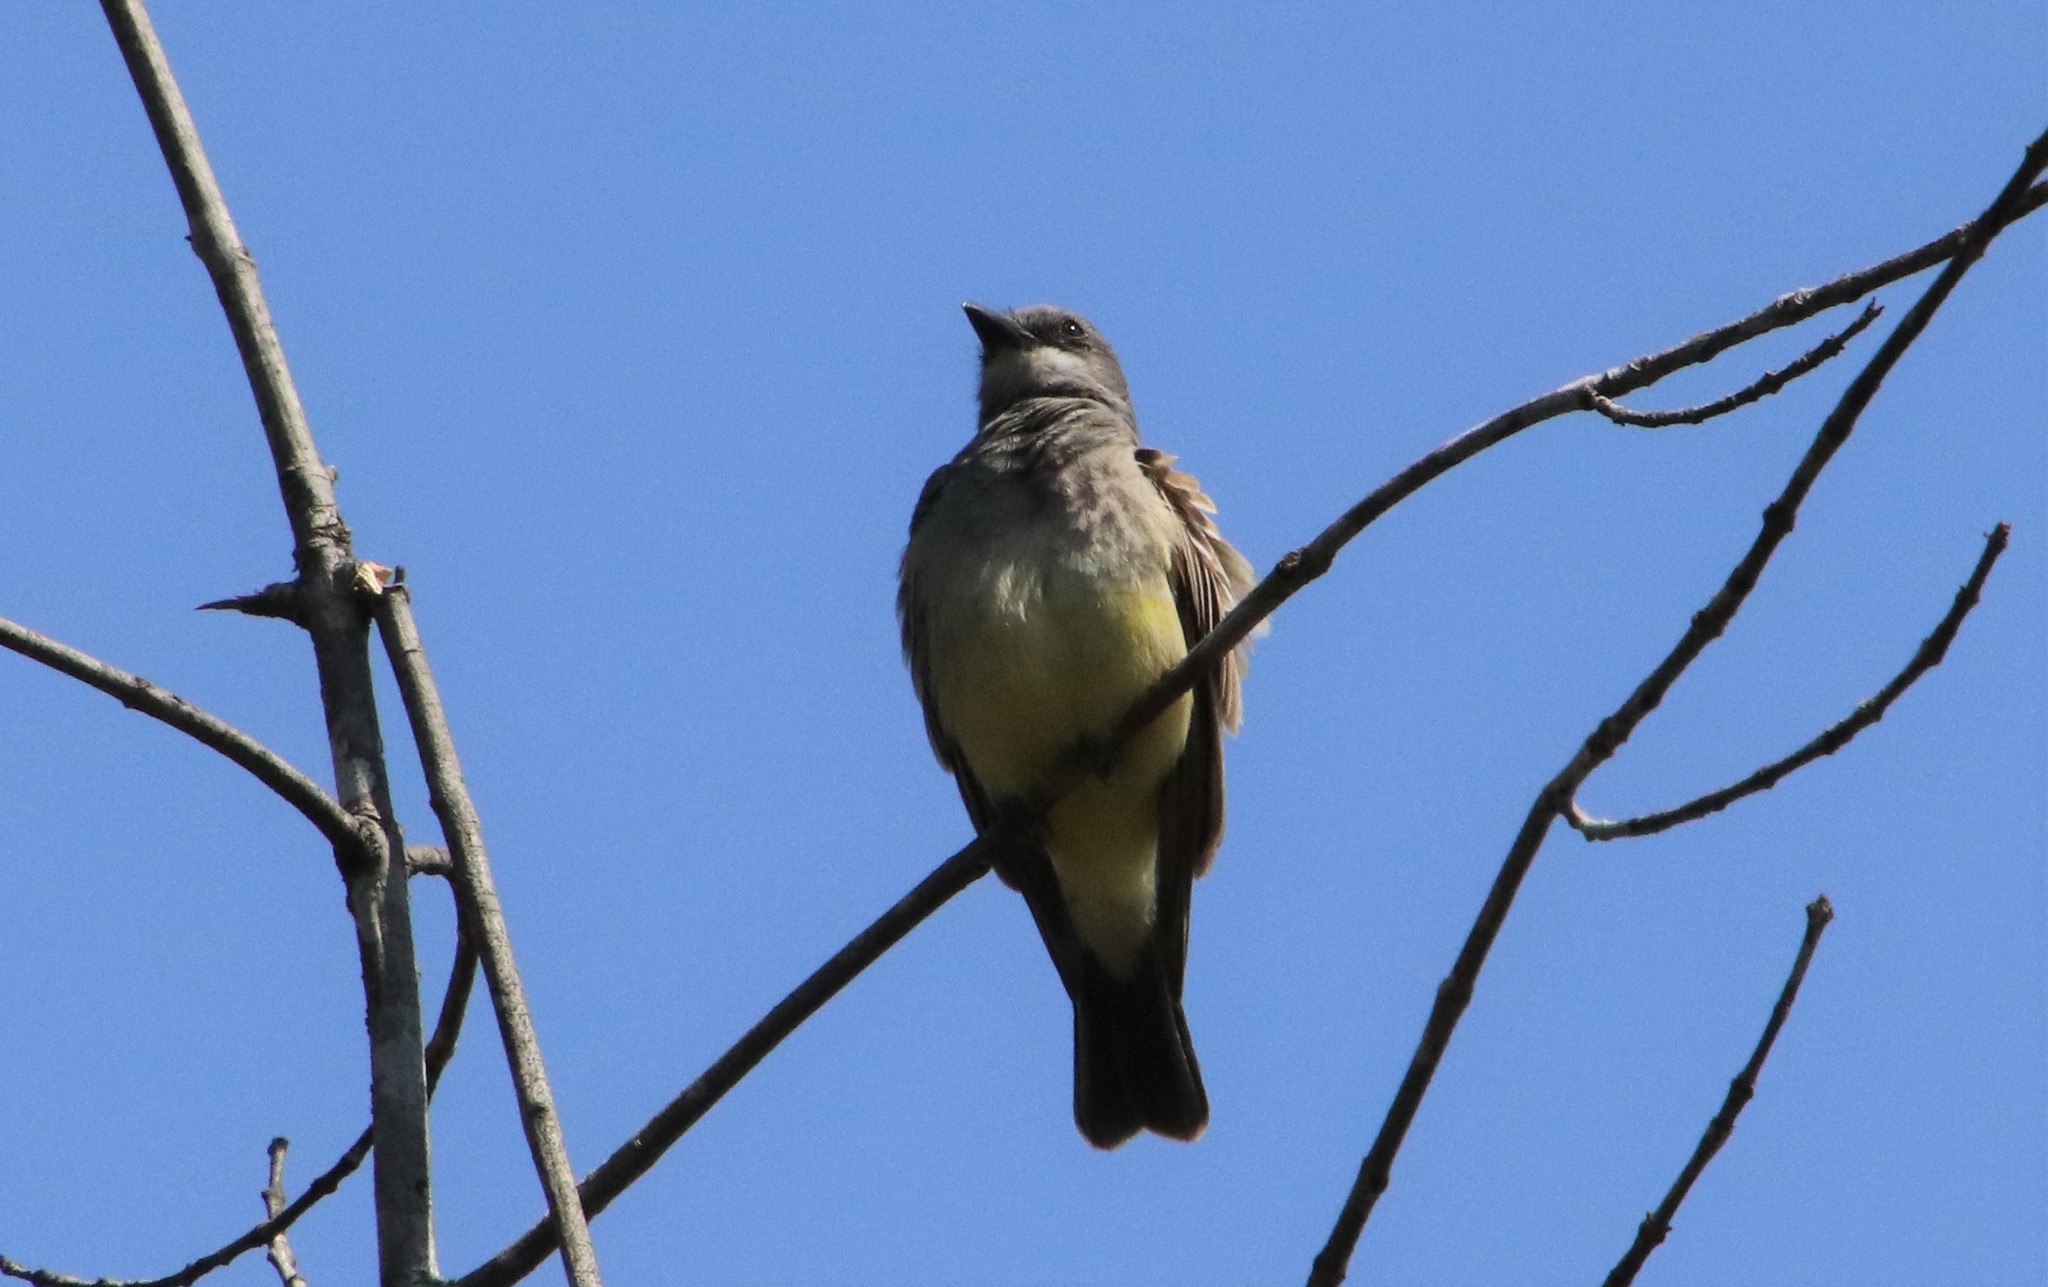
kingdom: Animalia
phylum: Chordata
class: Aves
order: Passeriformes
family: Tyrannidae
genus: Tyrannus
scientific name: Tyrannus vociferans
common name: Cassin's kingbird
